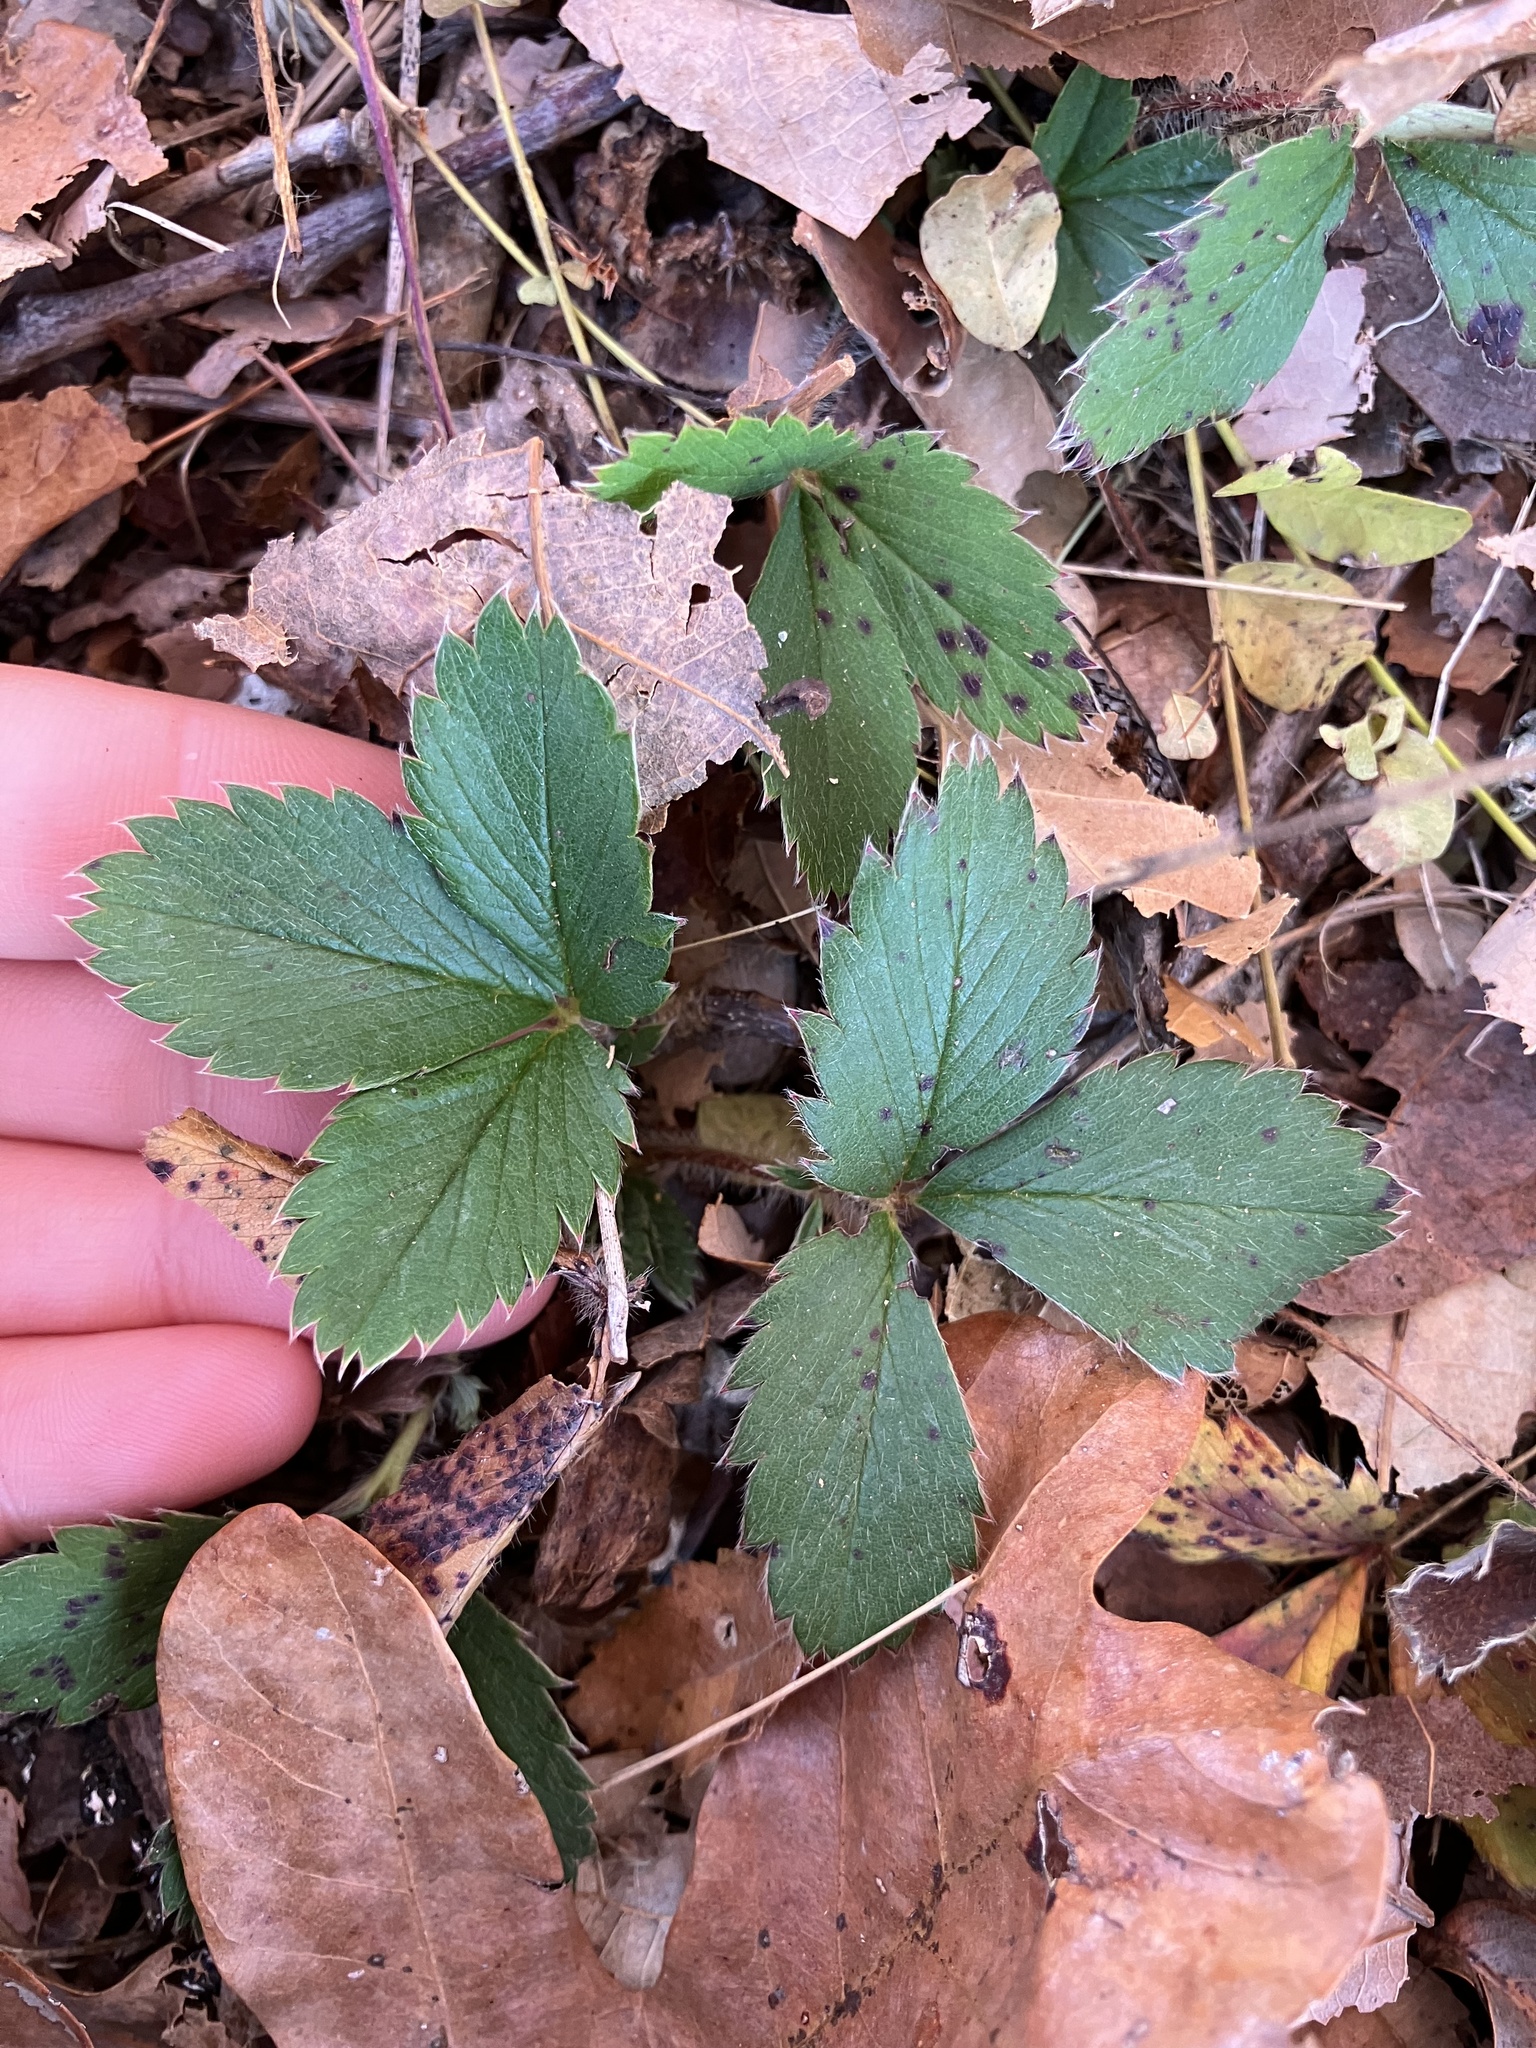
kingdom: Plantae
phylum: Tracheophyta
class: Magnoliopsida
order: Rosales
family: Rosaceae
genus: Fragaria
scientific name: Fragaria virginiana
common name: Thickleaved wild strawberry
